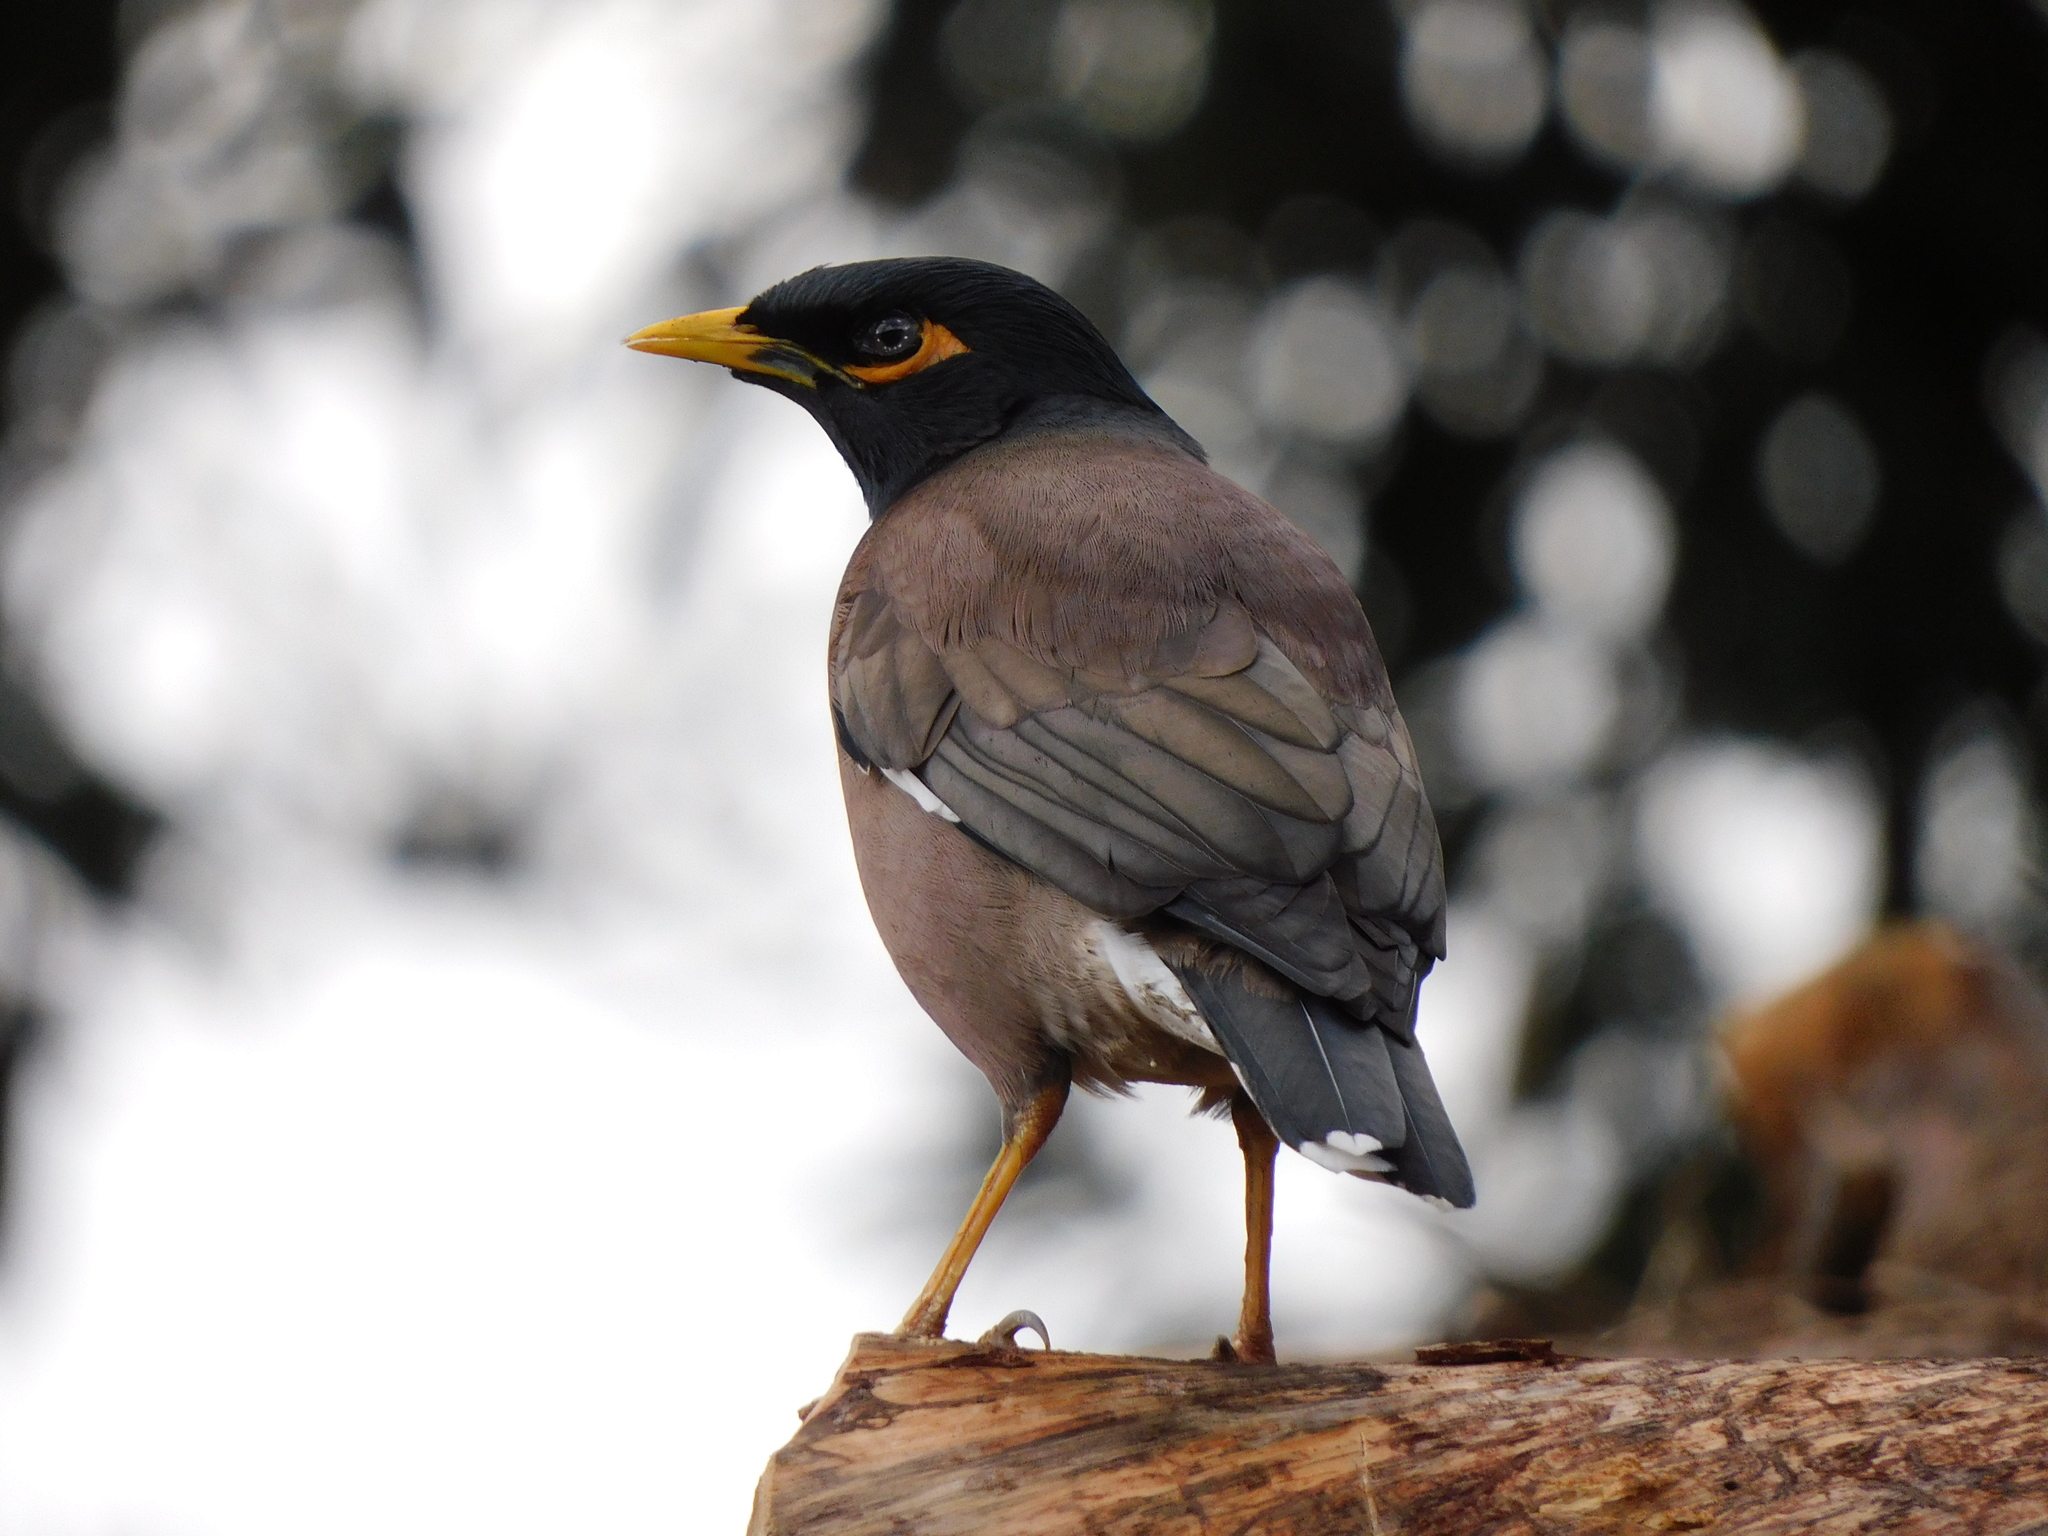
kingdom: Animalia
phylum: Chordata
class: Aves
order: Passeriformes
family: Sturnidae
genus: Acridotheres
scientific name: Acridotheres tristis
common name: Common myna
